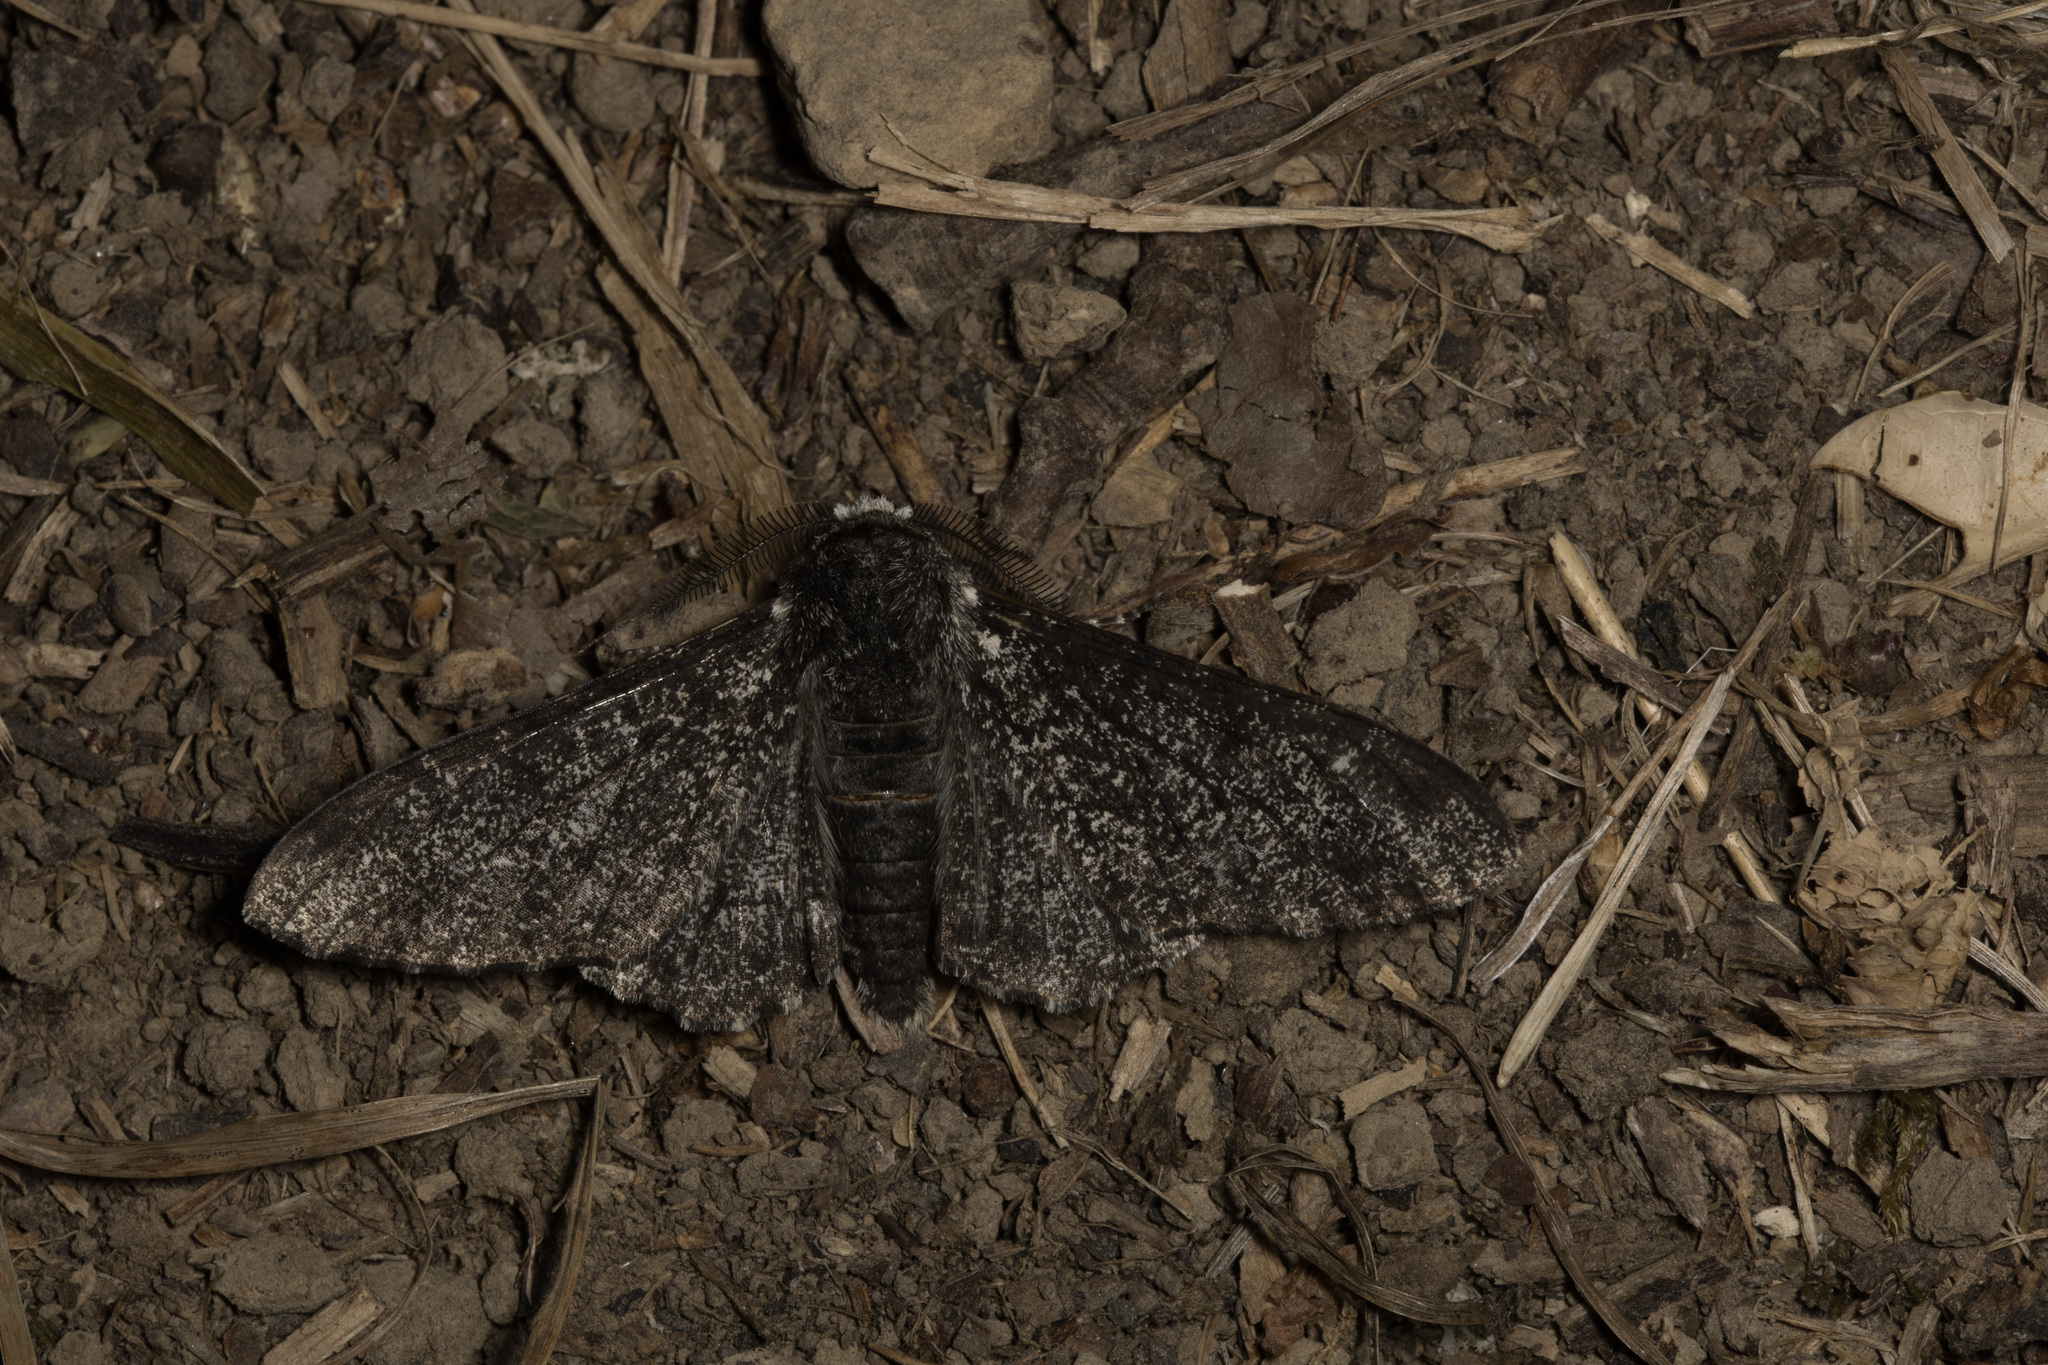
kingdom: Animalia
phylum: Arthropoda
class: Insecta
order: Lepidoptera
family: Geometridae
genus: Biston
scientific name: Biston betularia
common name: Peppered moth
